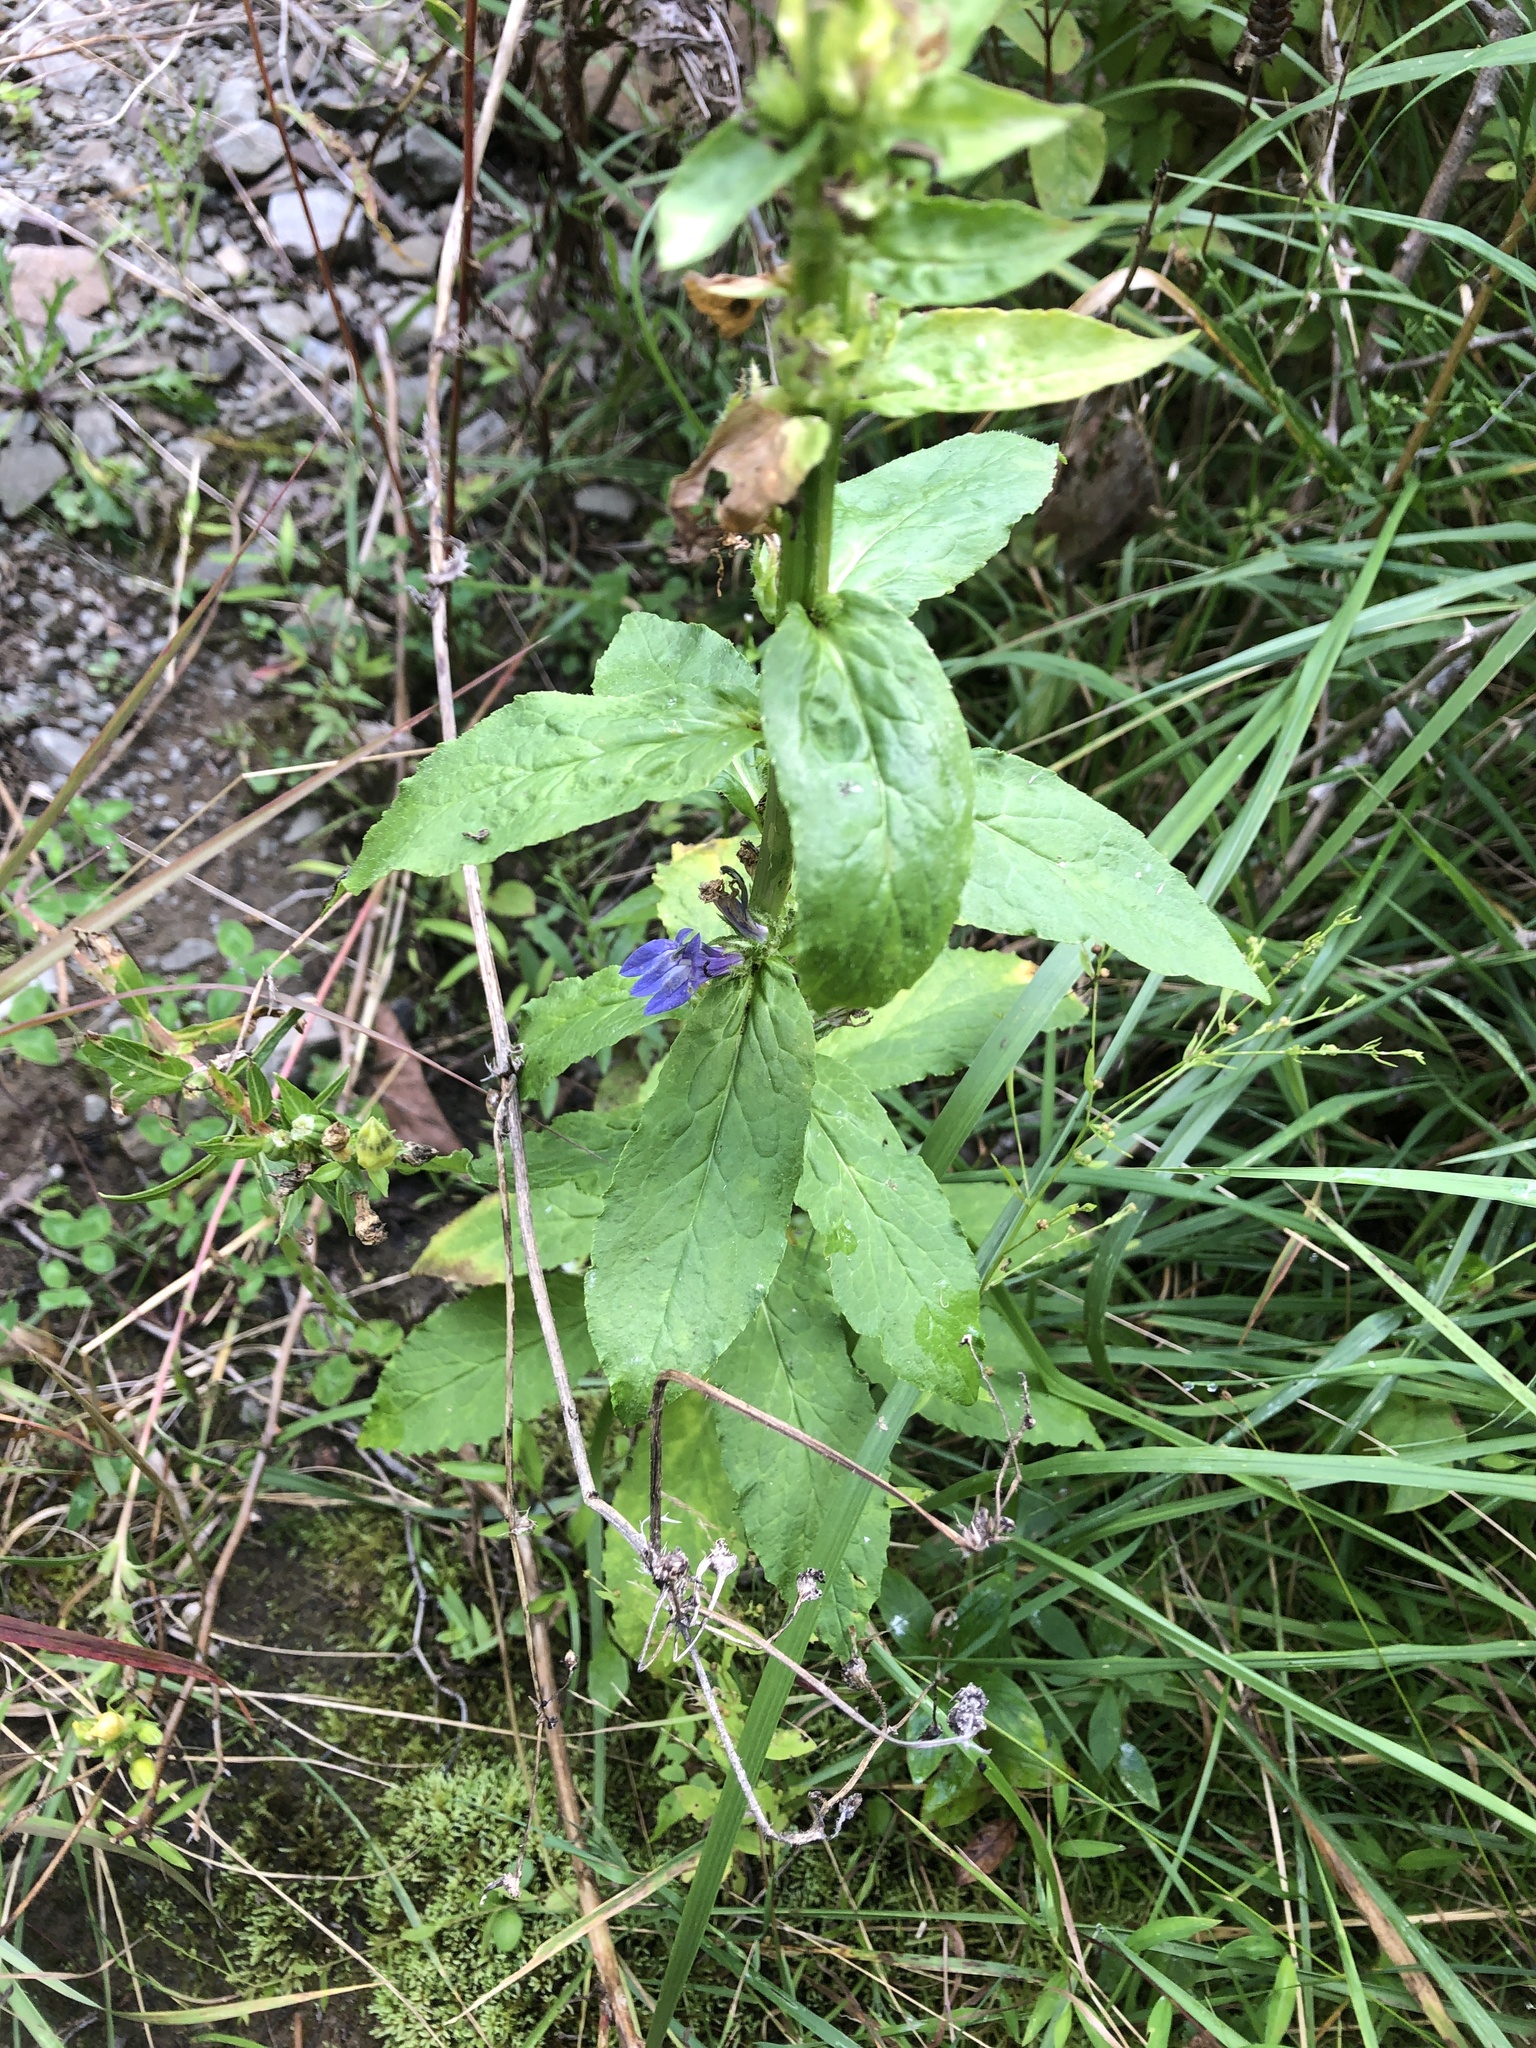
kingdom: Plantae
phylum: Tracheophyta
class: Magnoliopsida
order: Asterales
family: Campanulaceae
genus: Lobelia
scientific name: Lobelia siphilitica
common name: Great lobelia
